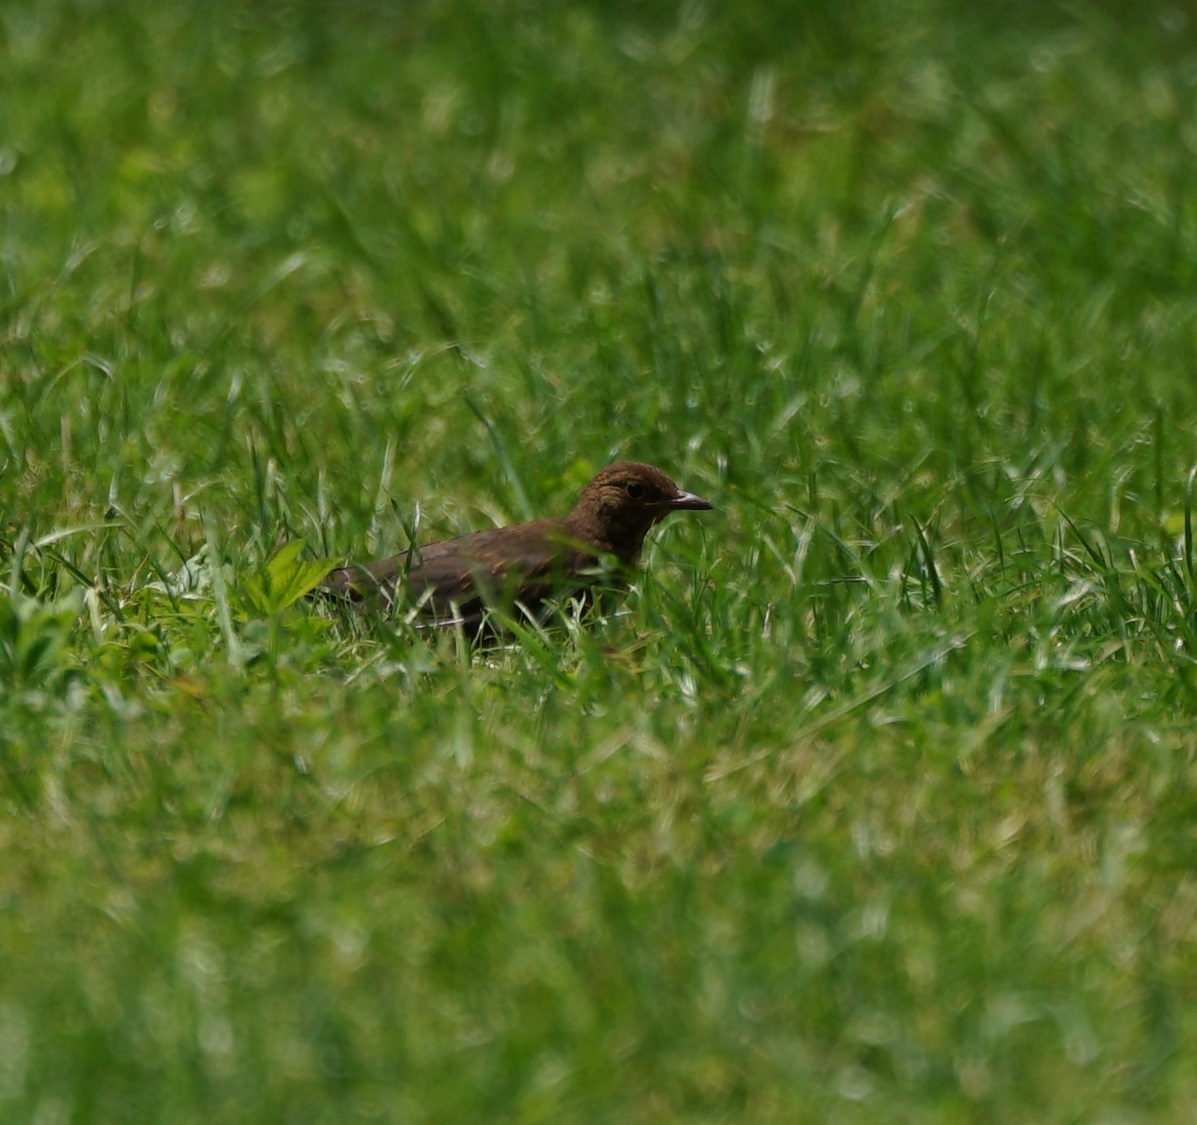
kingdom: Animalia
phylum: Chordata
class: Aves
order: Passeriformes
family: Turdidae
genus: Turdus
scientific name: Turdus merula
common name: Common blackbird
